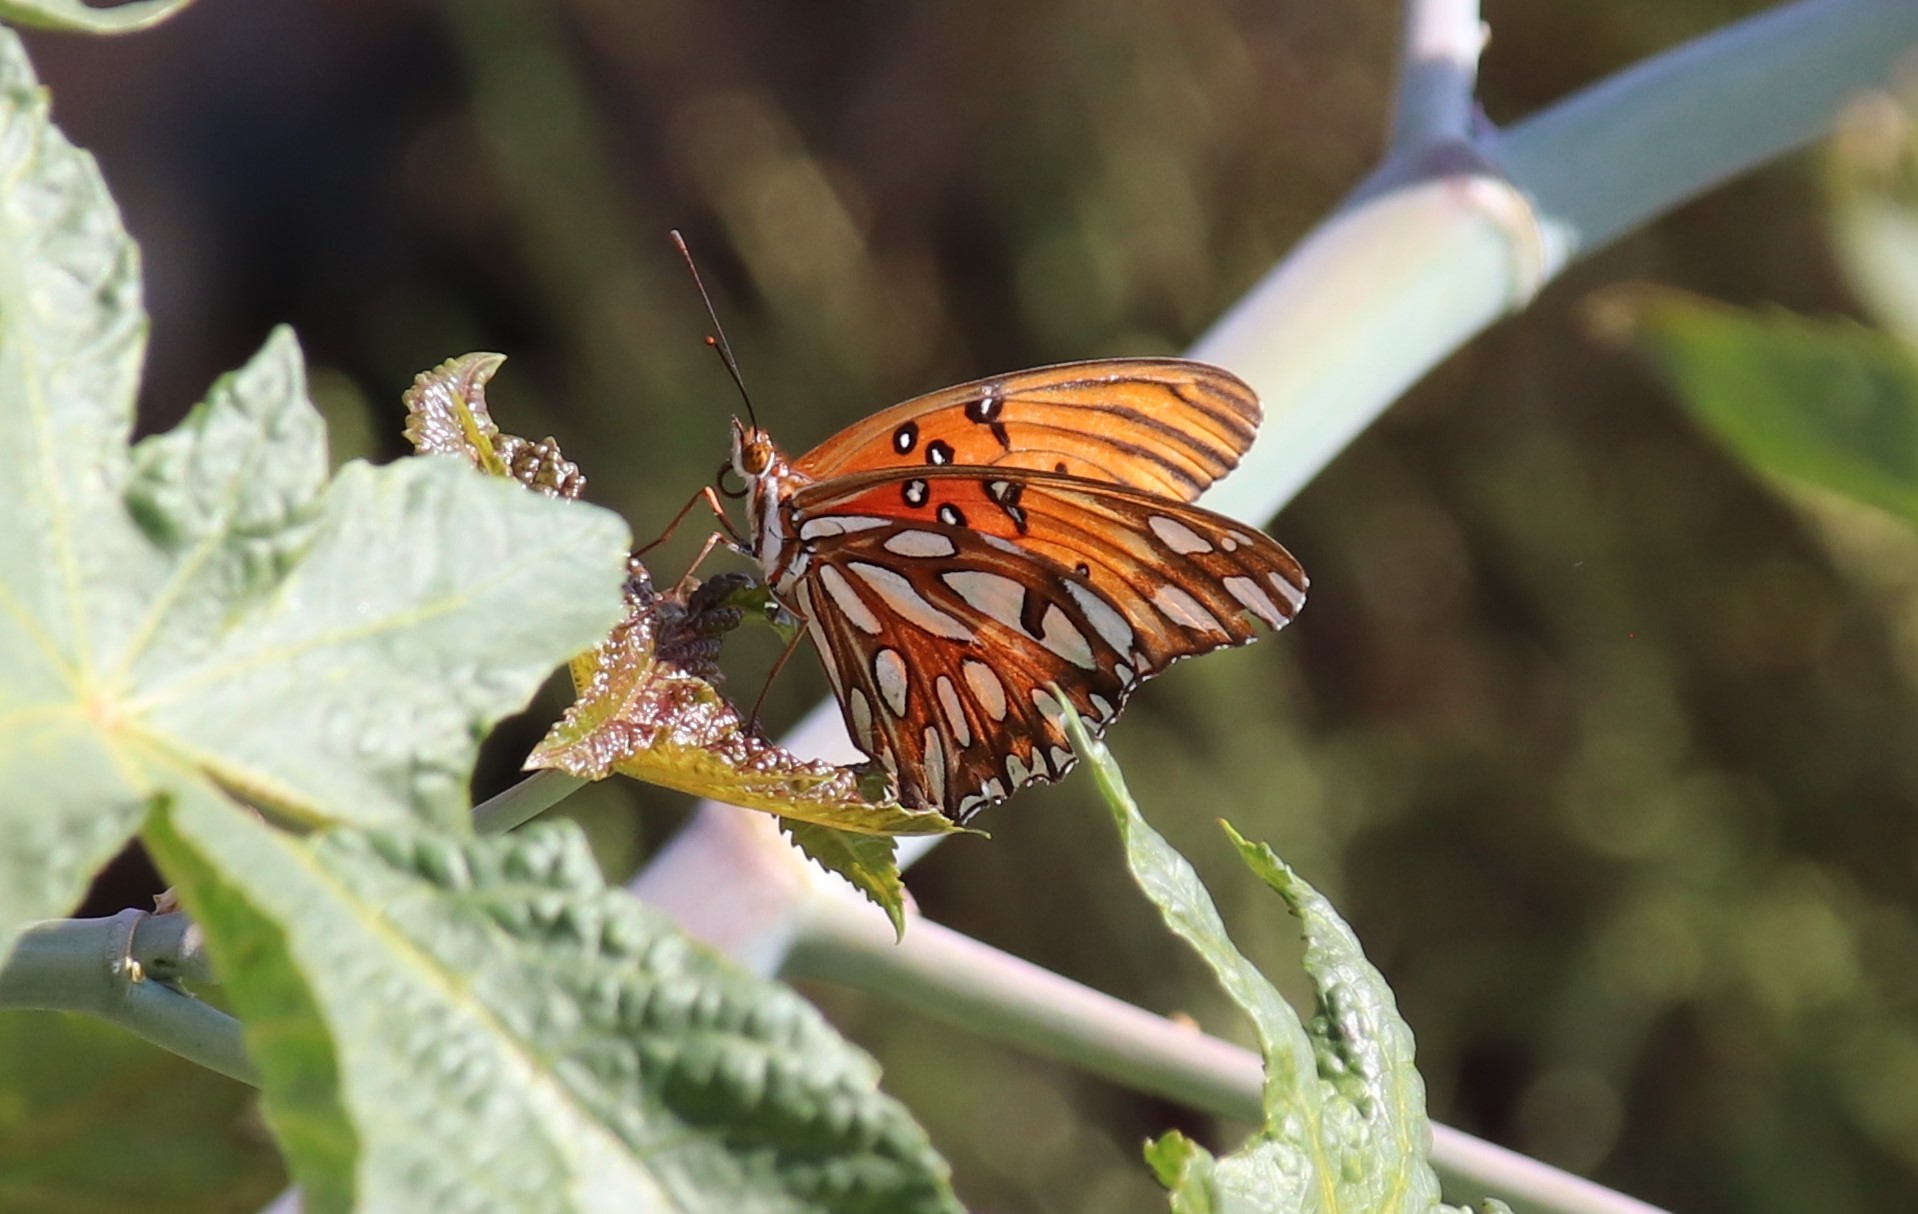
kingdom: Animalia
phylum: Arthropoda
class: Insecta
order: Lepidoptera
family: Nymphalidae
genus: Dione
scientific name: Dione vanillae
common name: Gulf fritillary
